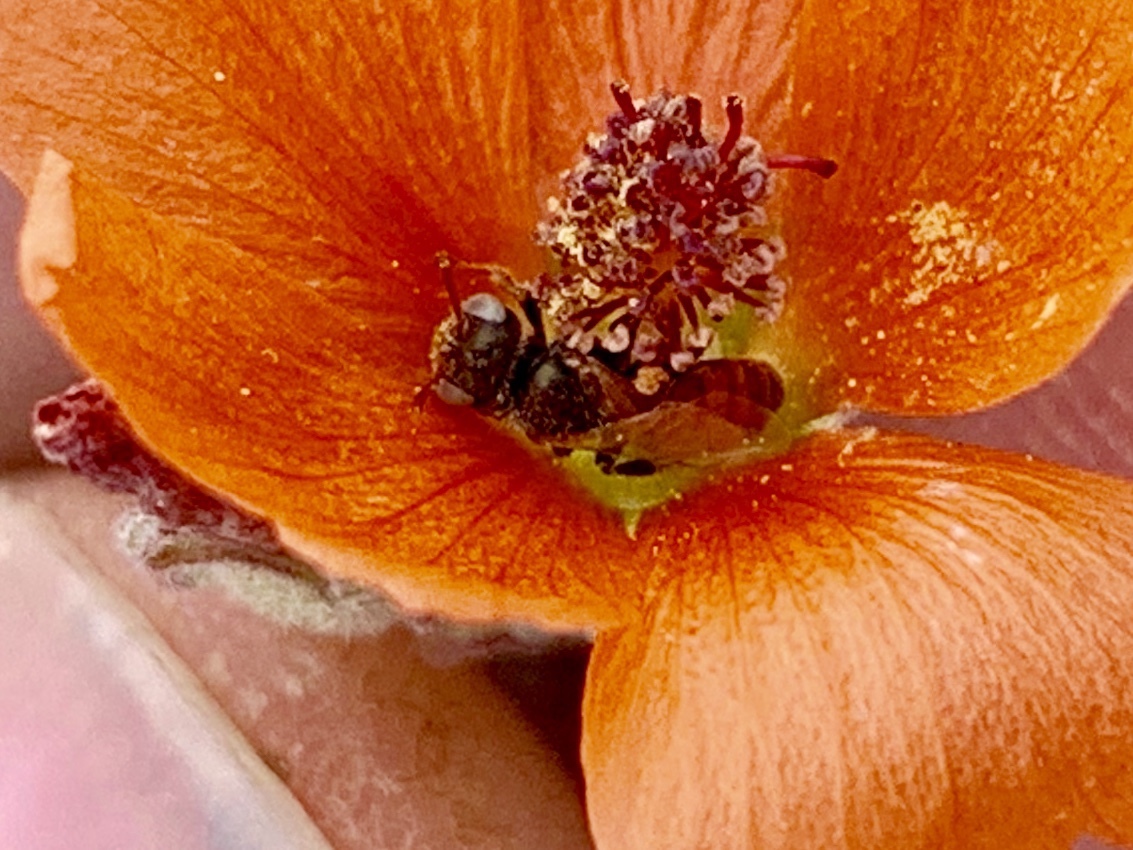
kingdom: Animalia
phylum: Arthropoda
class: Insecta
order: Hymenoptera
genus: Macroteropsis
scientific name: Macroteropsis
